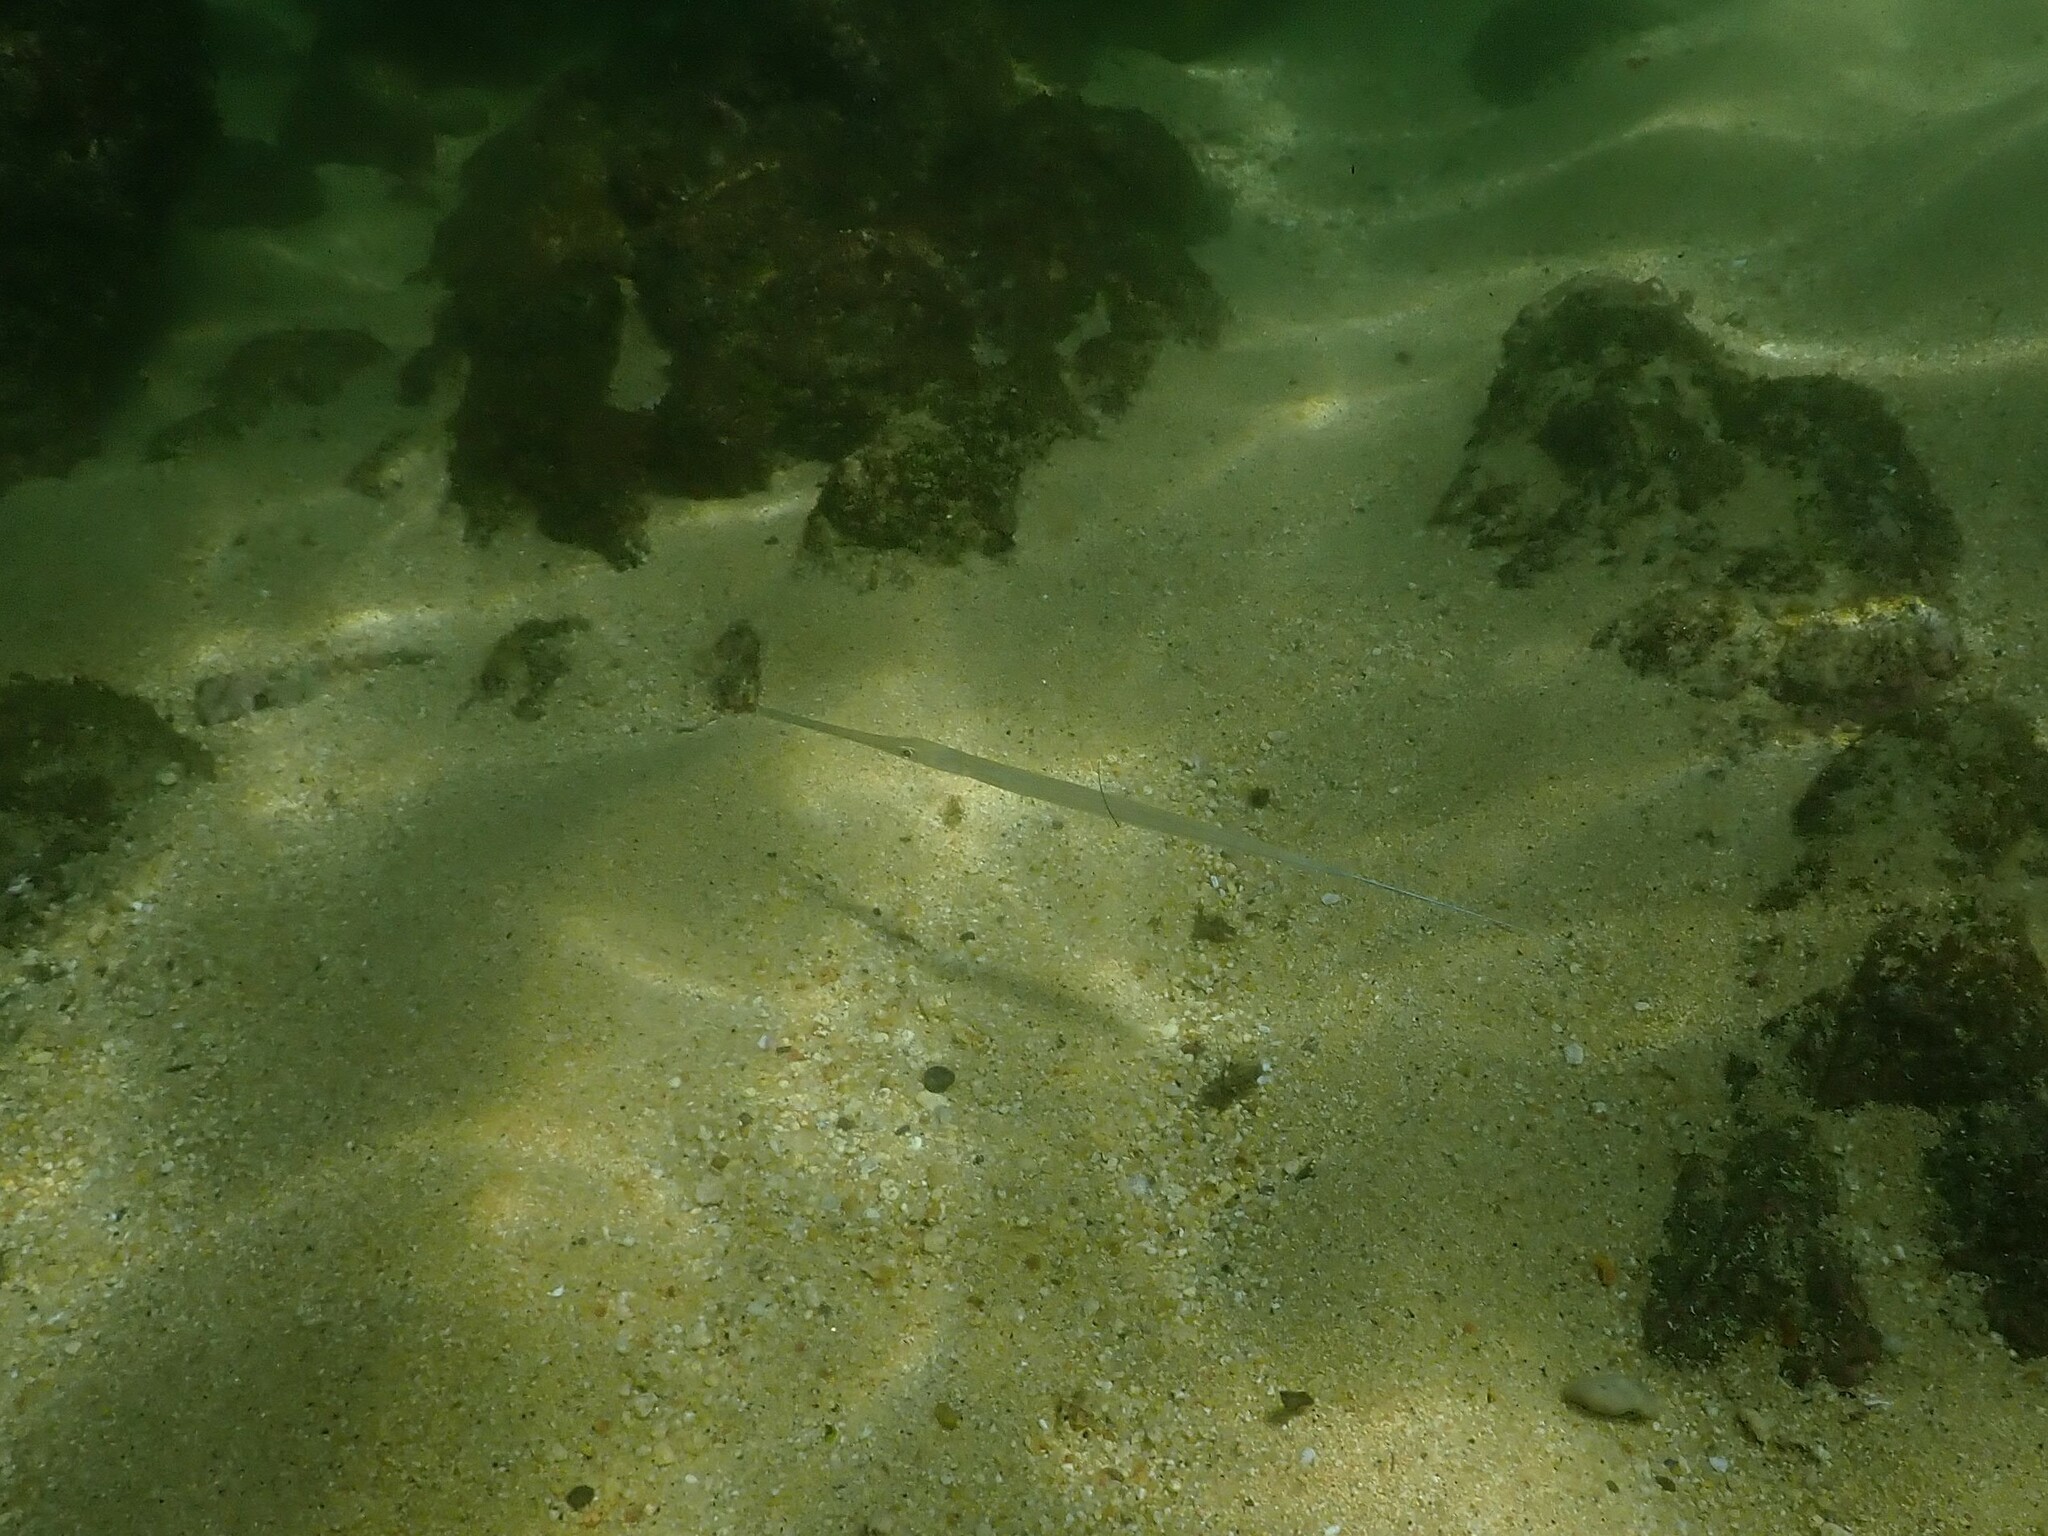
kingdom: Animalia
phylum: Chordata
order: Syngnathiformes
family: Fistulariidae
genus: Fistularia
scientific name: Fistularia commersonii
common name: Bluespotted cornetfish
